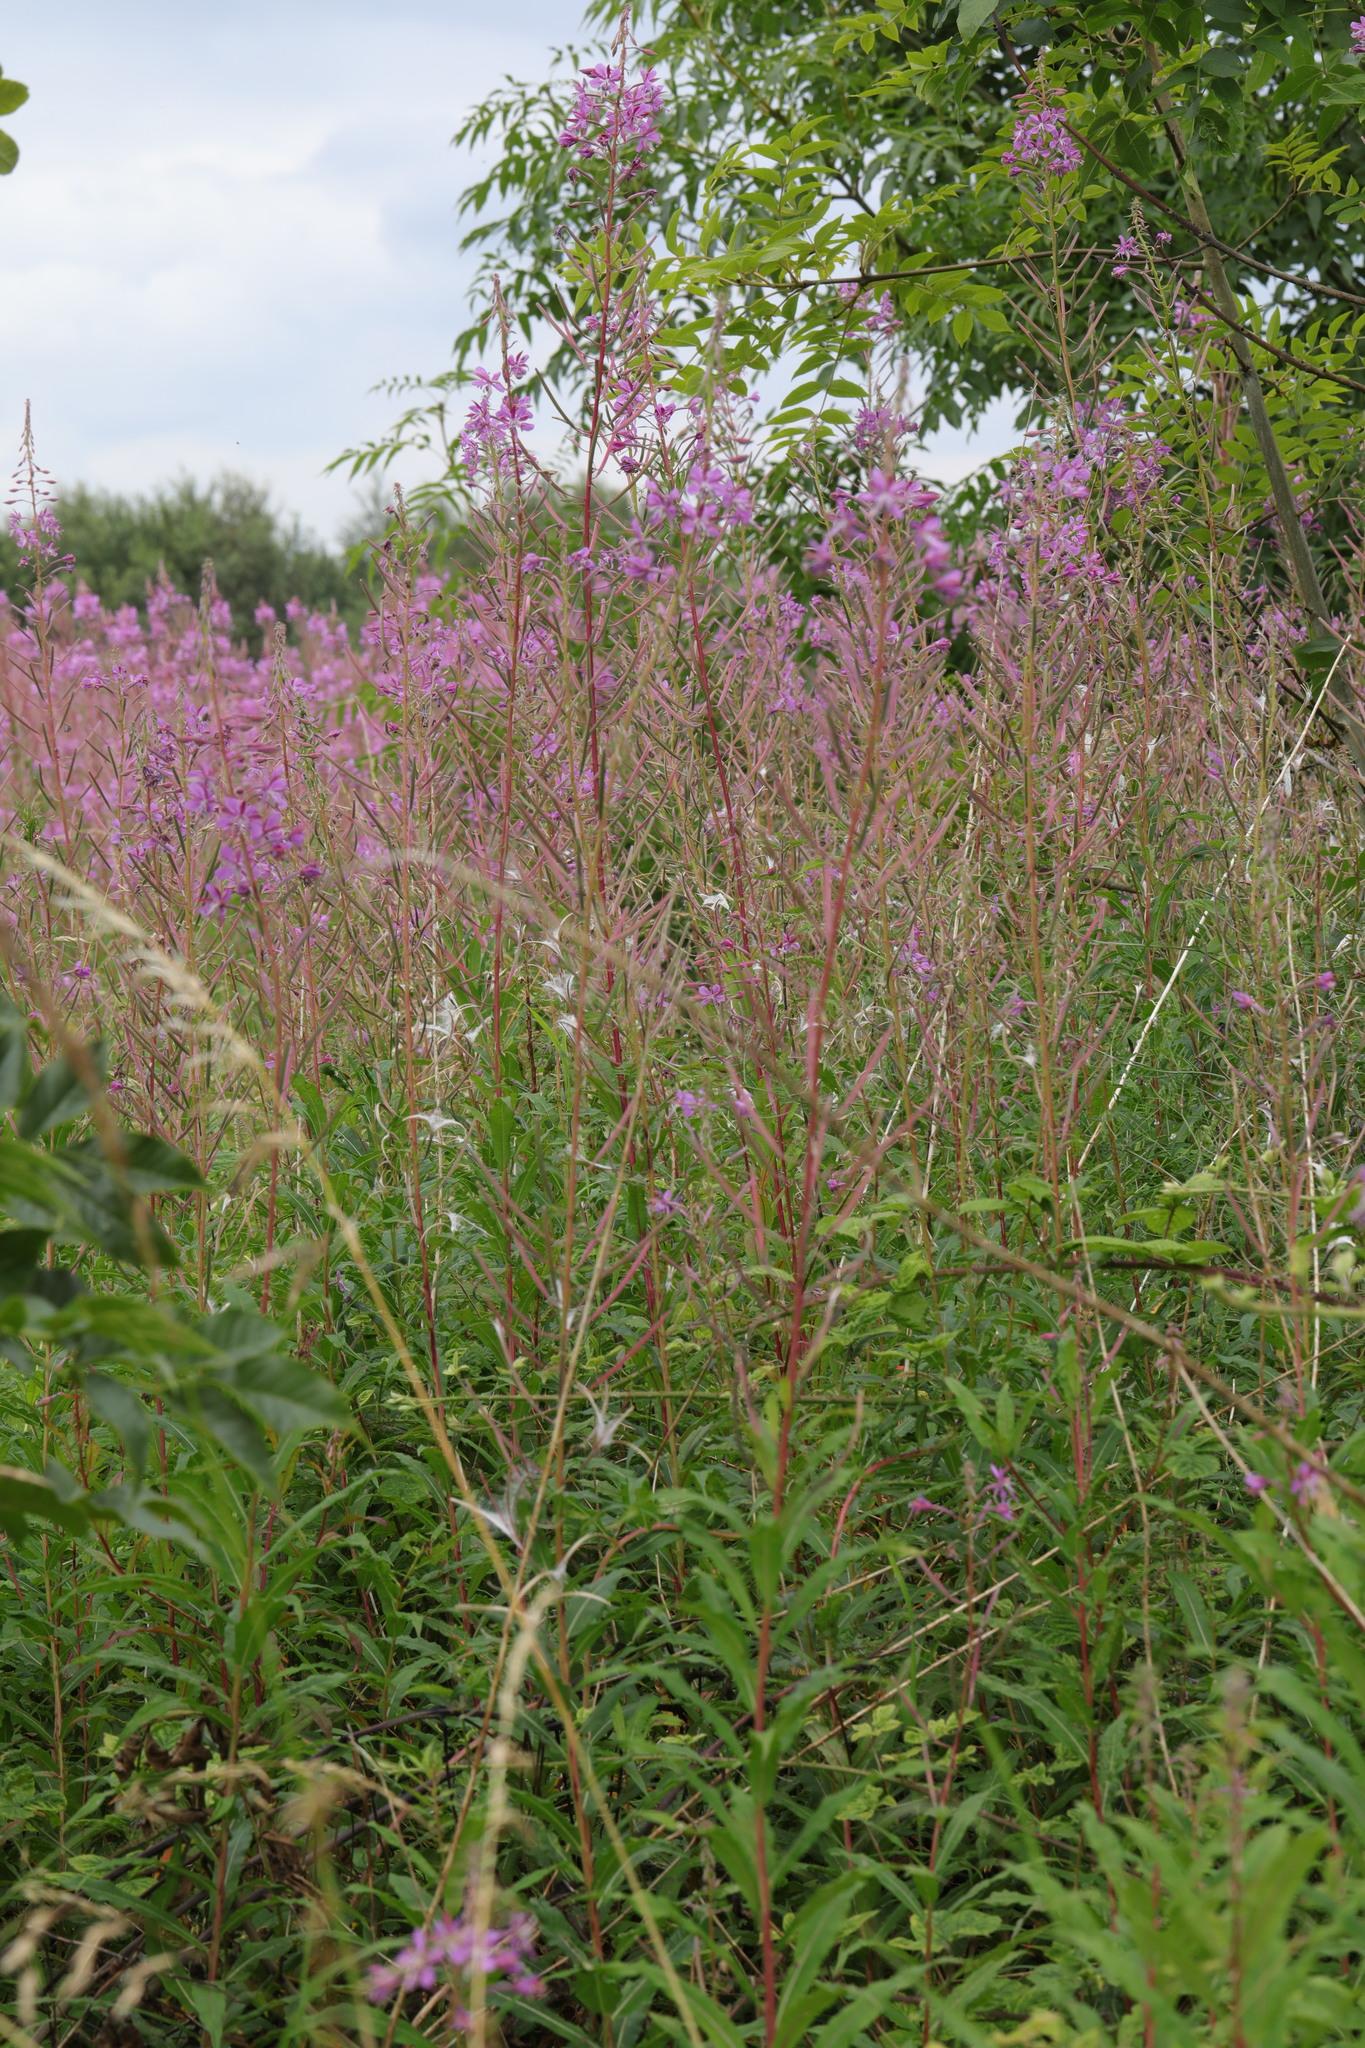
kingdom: Plantae
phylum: Tracheophyta
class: Magnoliopsida
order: Myrtales
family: Onagraceae
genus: Chamaenerion
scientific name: Chamaenerion angustifolium
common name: Fireweed
